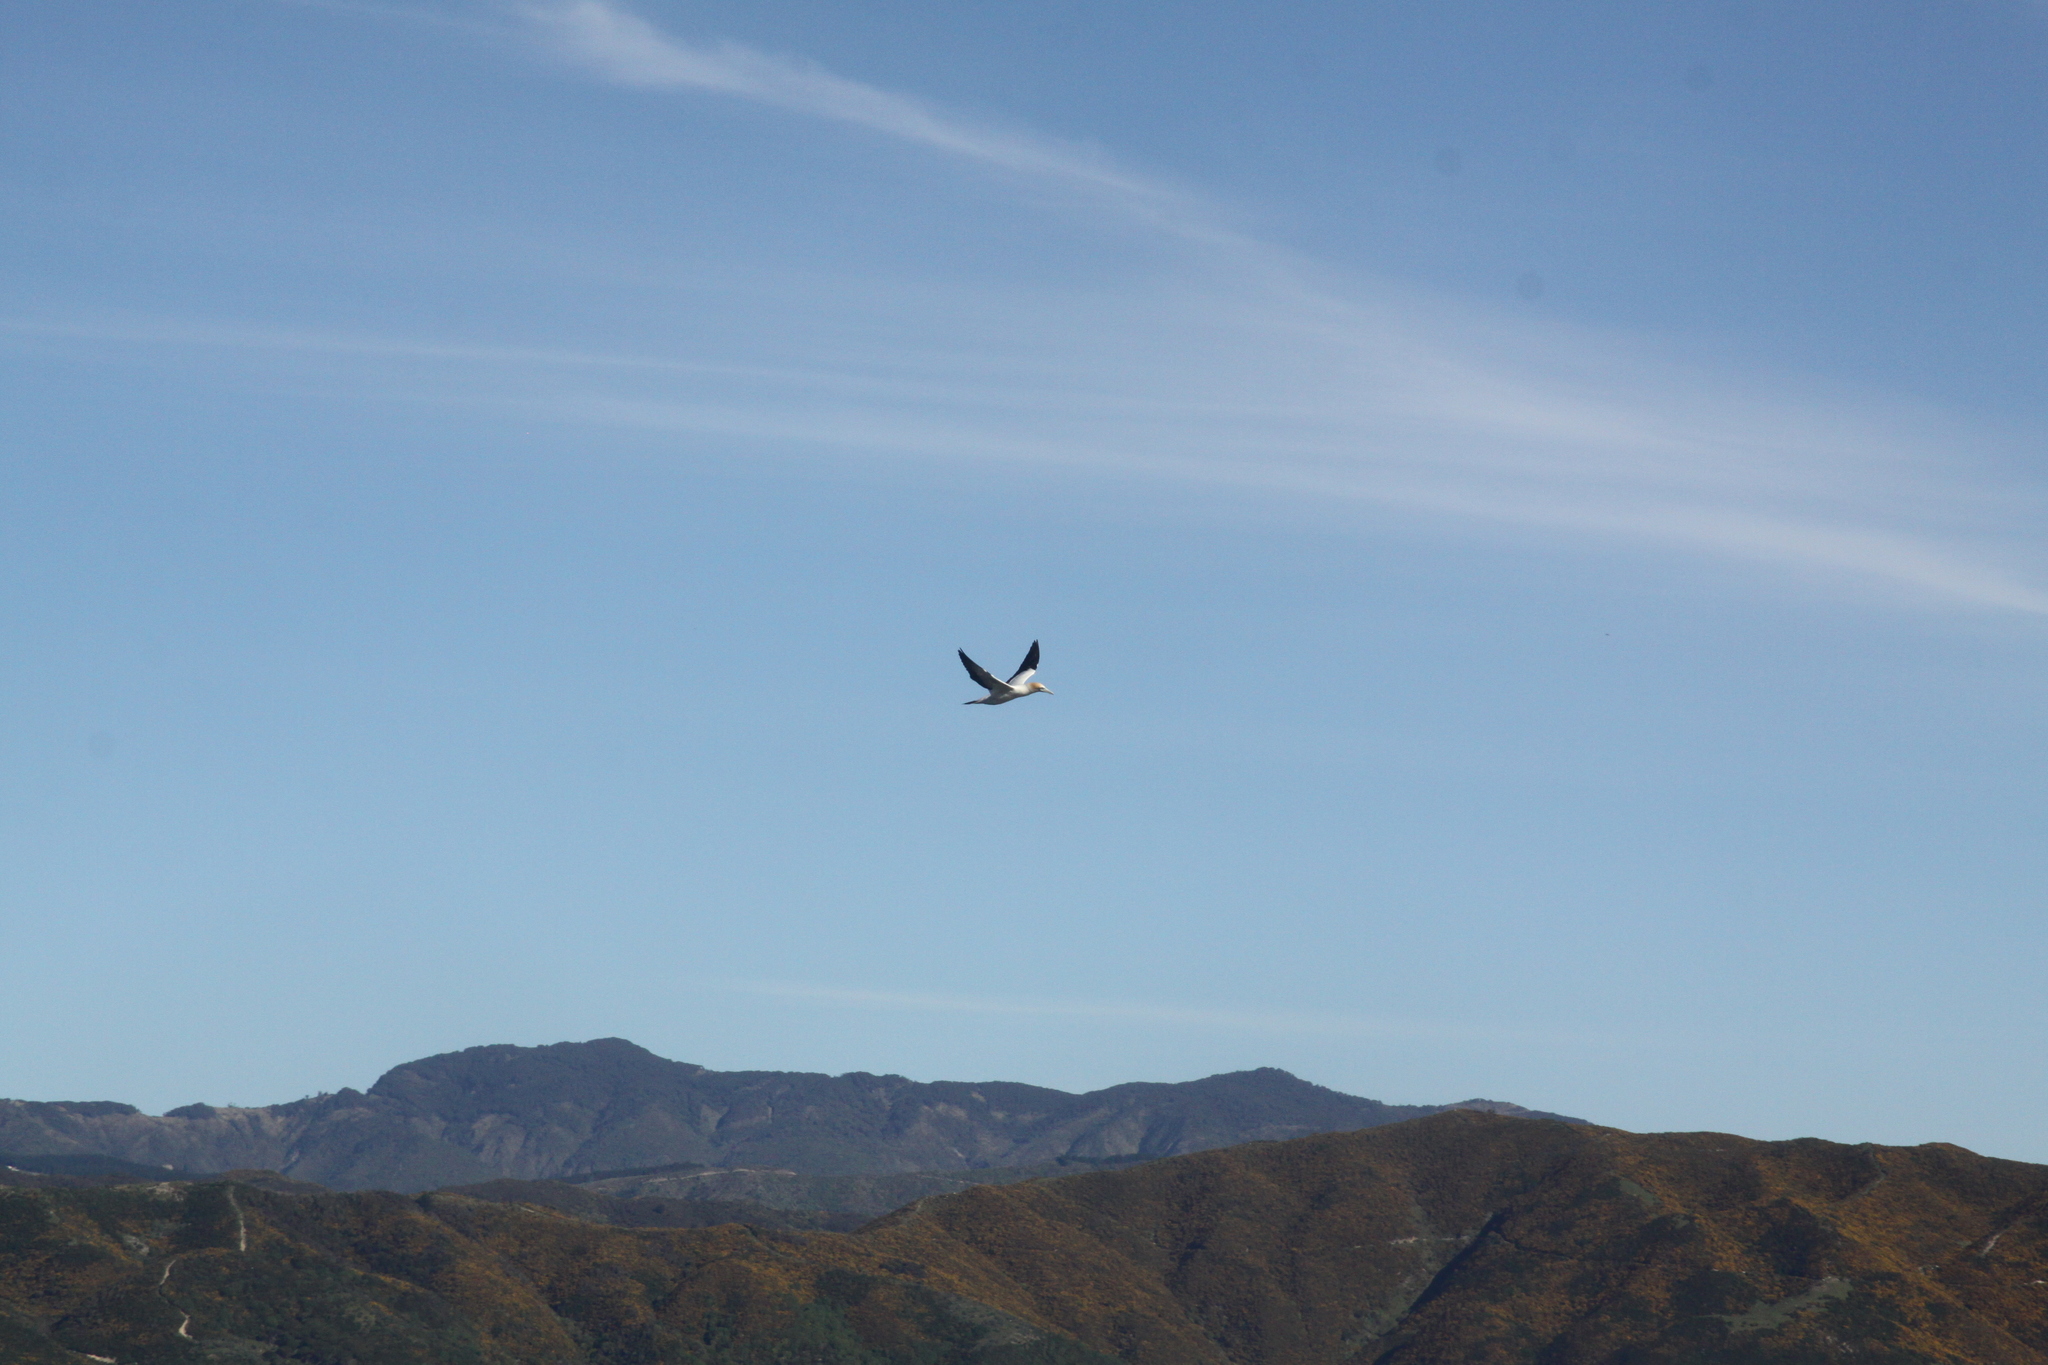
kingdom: Animalia
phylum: Chordata
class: Aves
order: Suliformes
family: Sulidae
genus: Morus
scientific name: Morus serrator
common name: Australasian gannet
